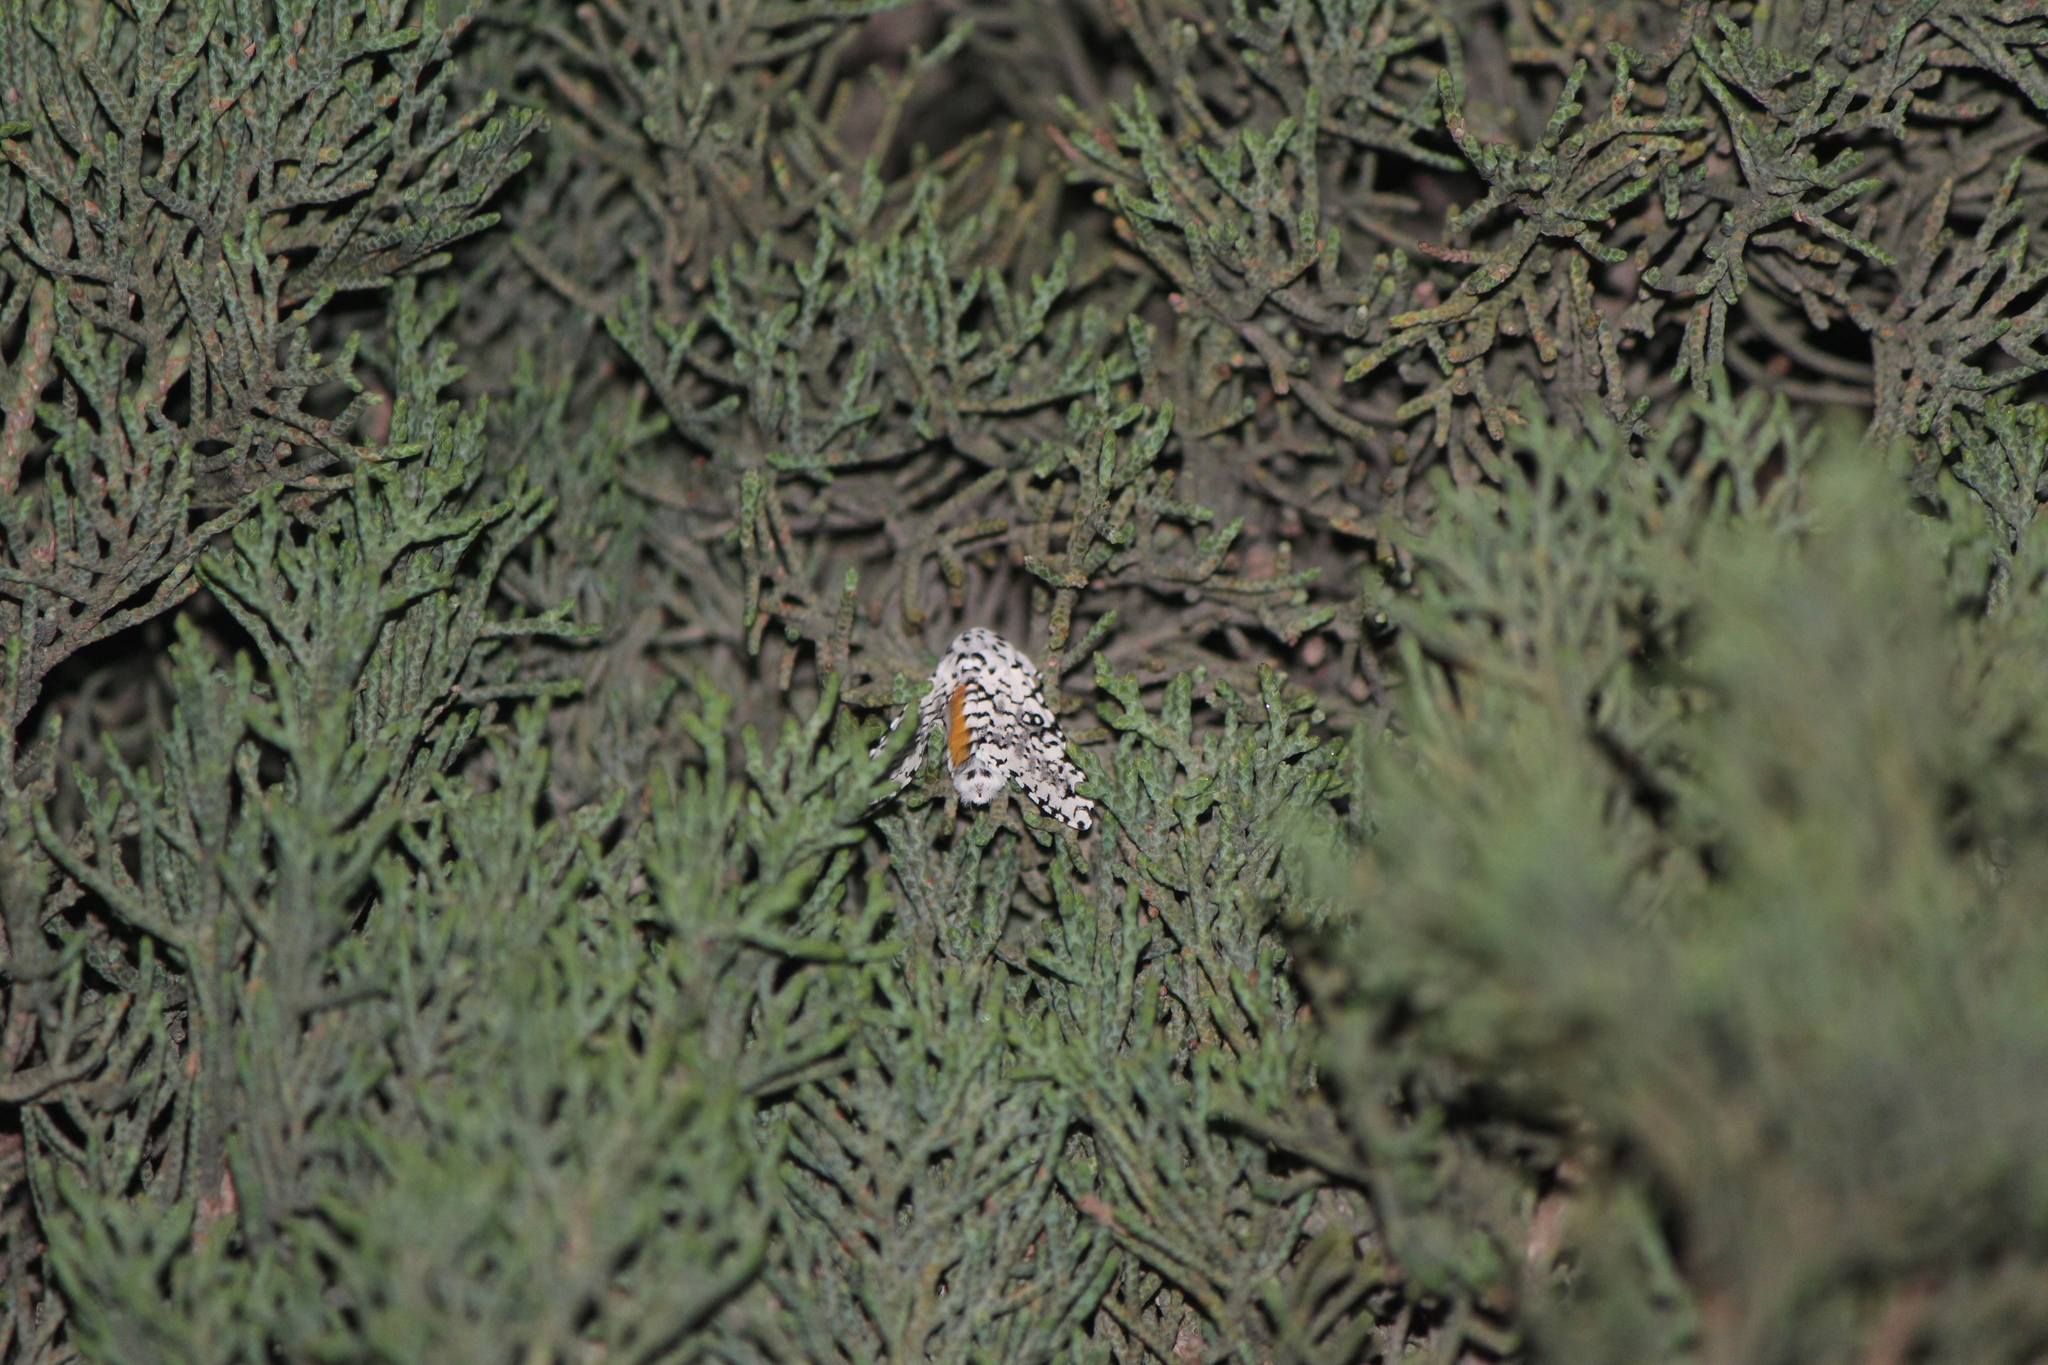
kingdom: Animalia
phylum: Arthropoda
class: Insecta
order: Lepidoptera
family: Noctuidae
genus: Lichnoptera
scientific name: Lichnoptera decora
